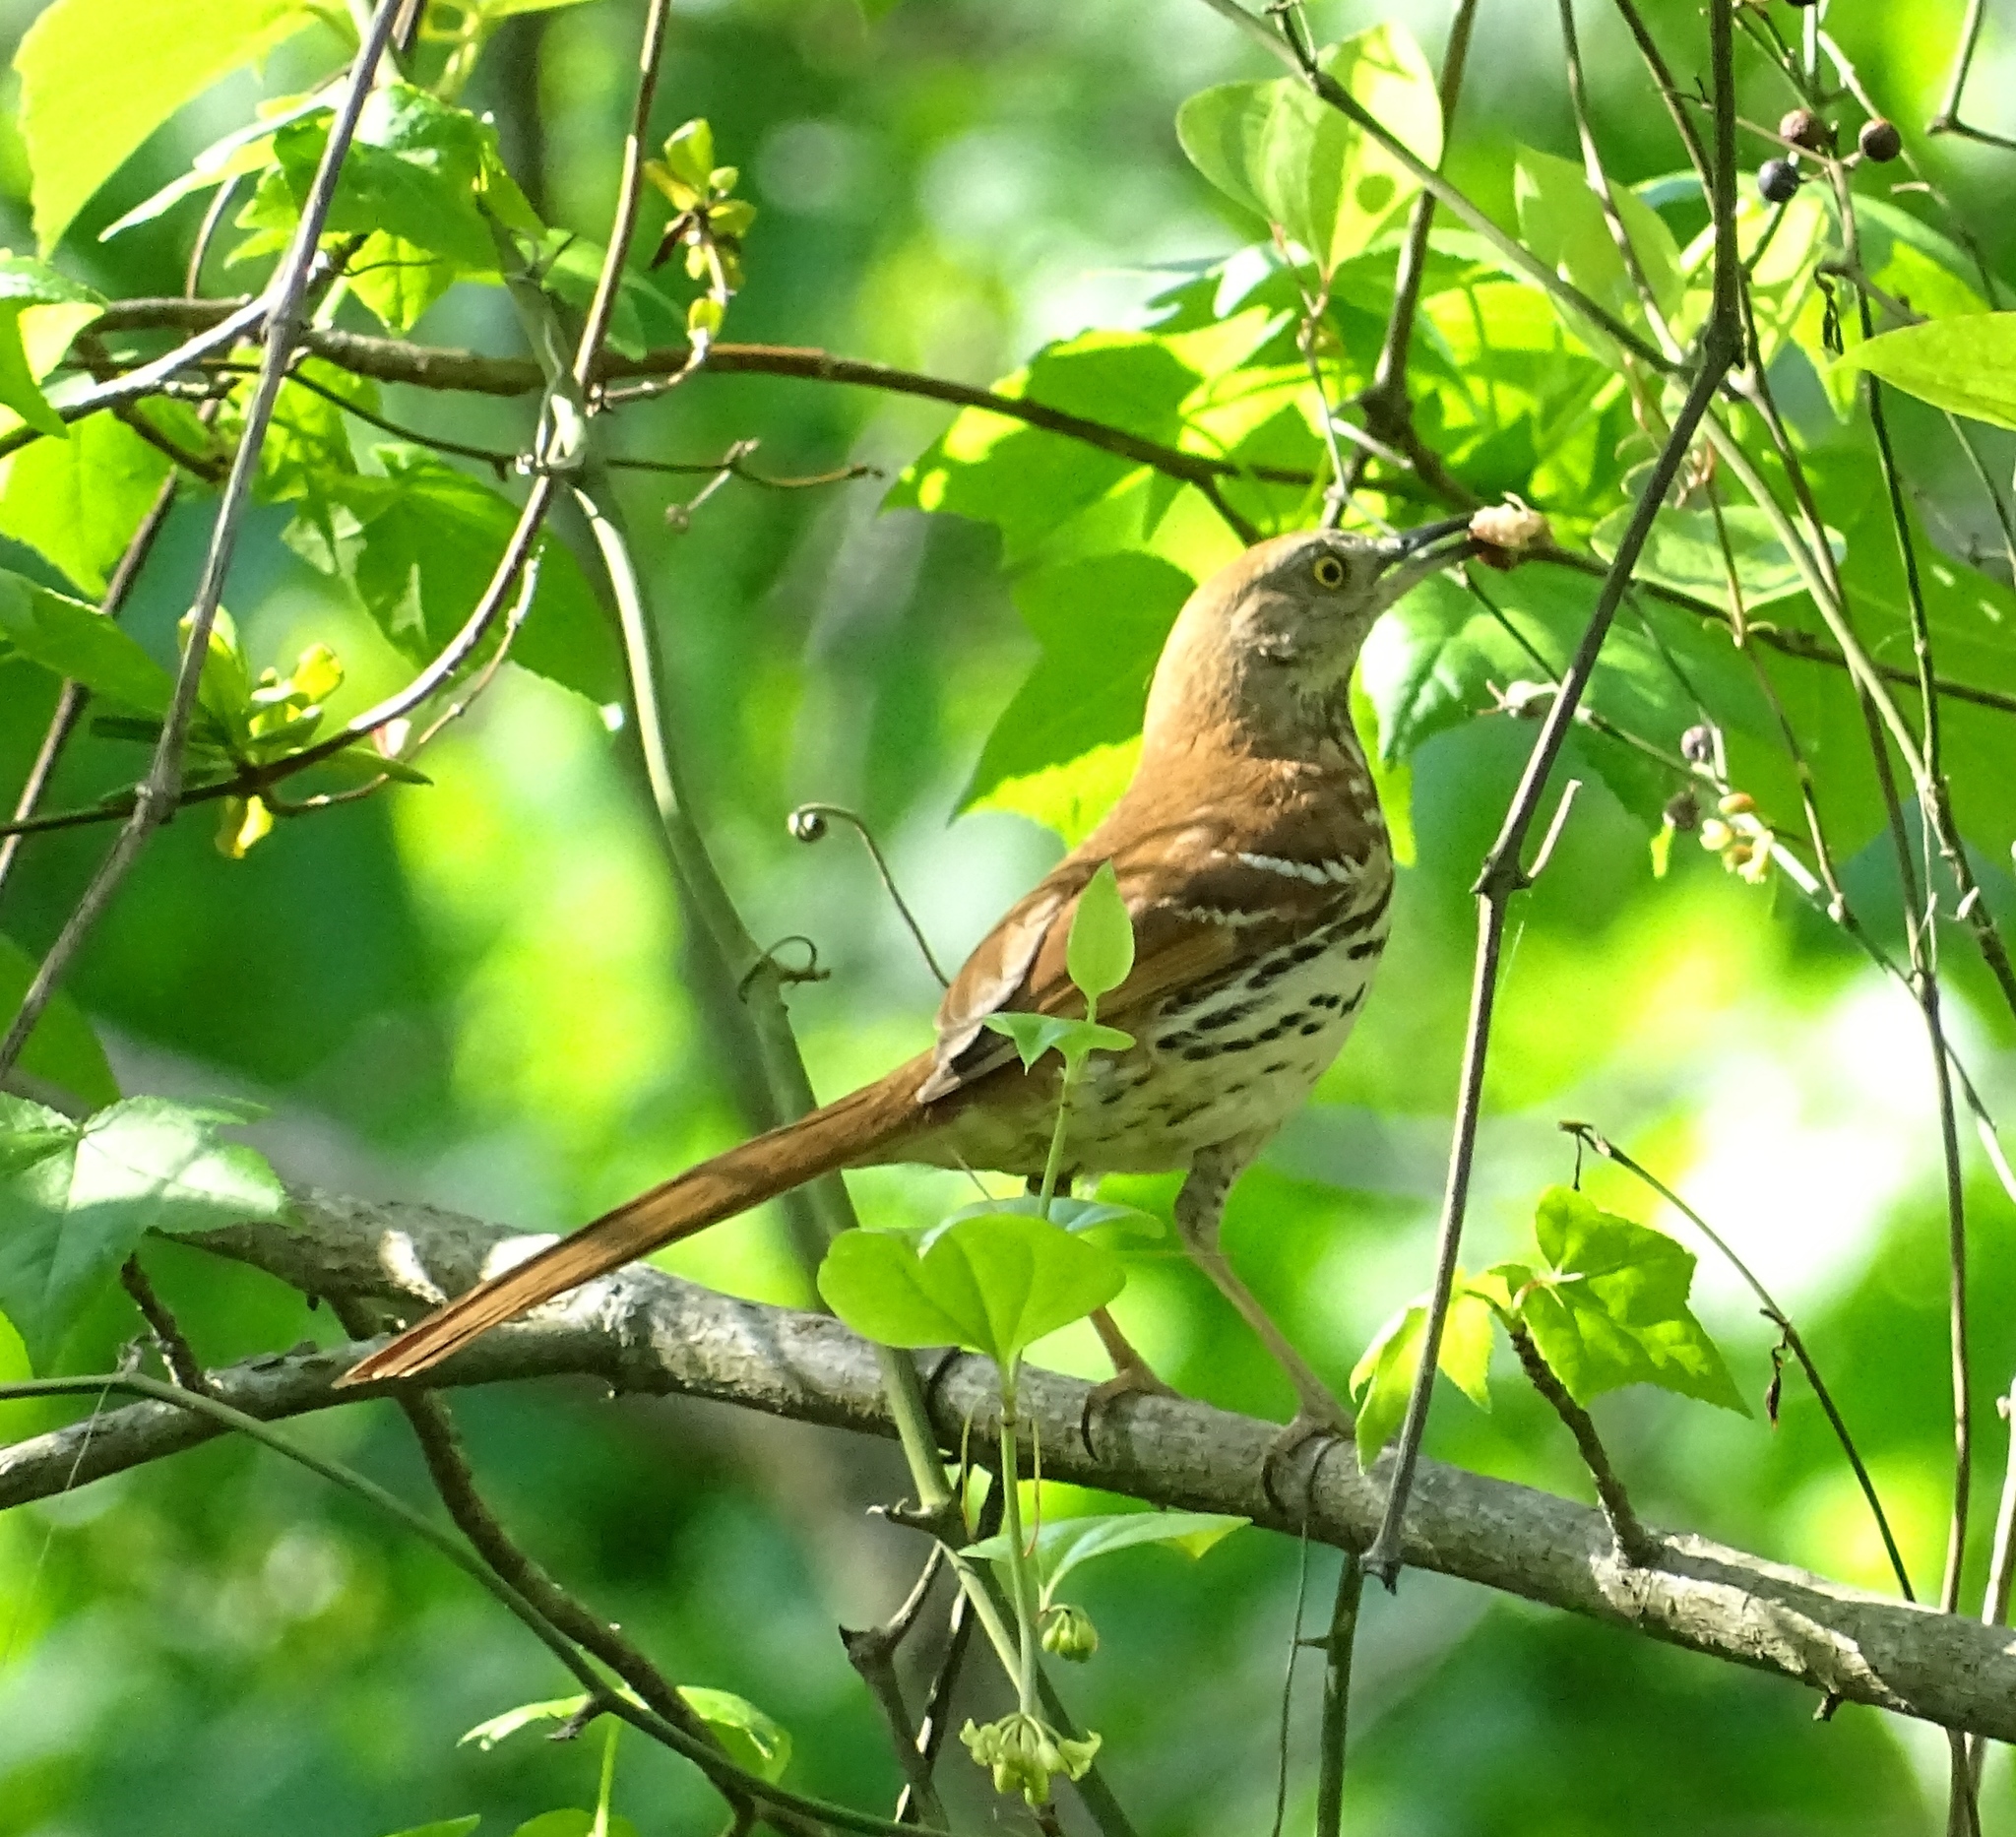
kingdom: Animalia
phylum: Chordata
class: Aves
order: Passeriformes
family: Mimidae
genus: Toxostoma
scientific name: Toxostoma rufum
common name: Brown thrasher
